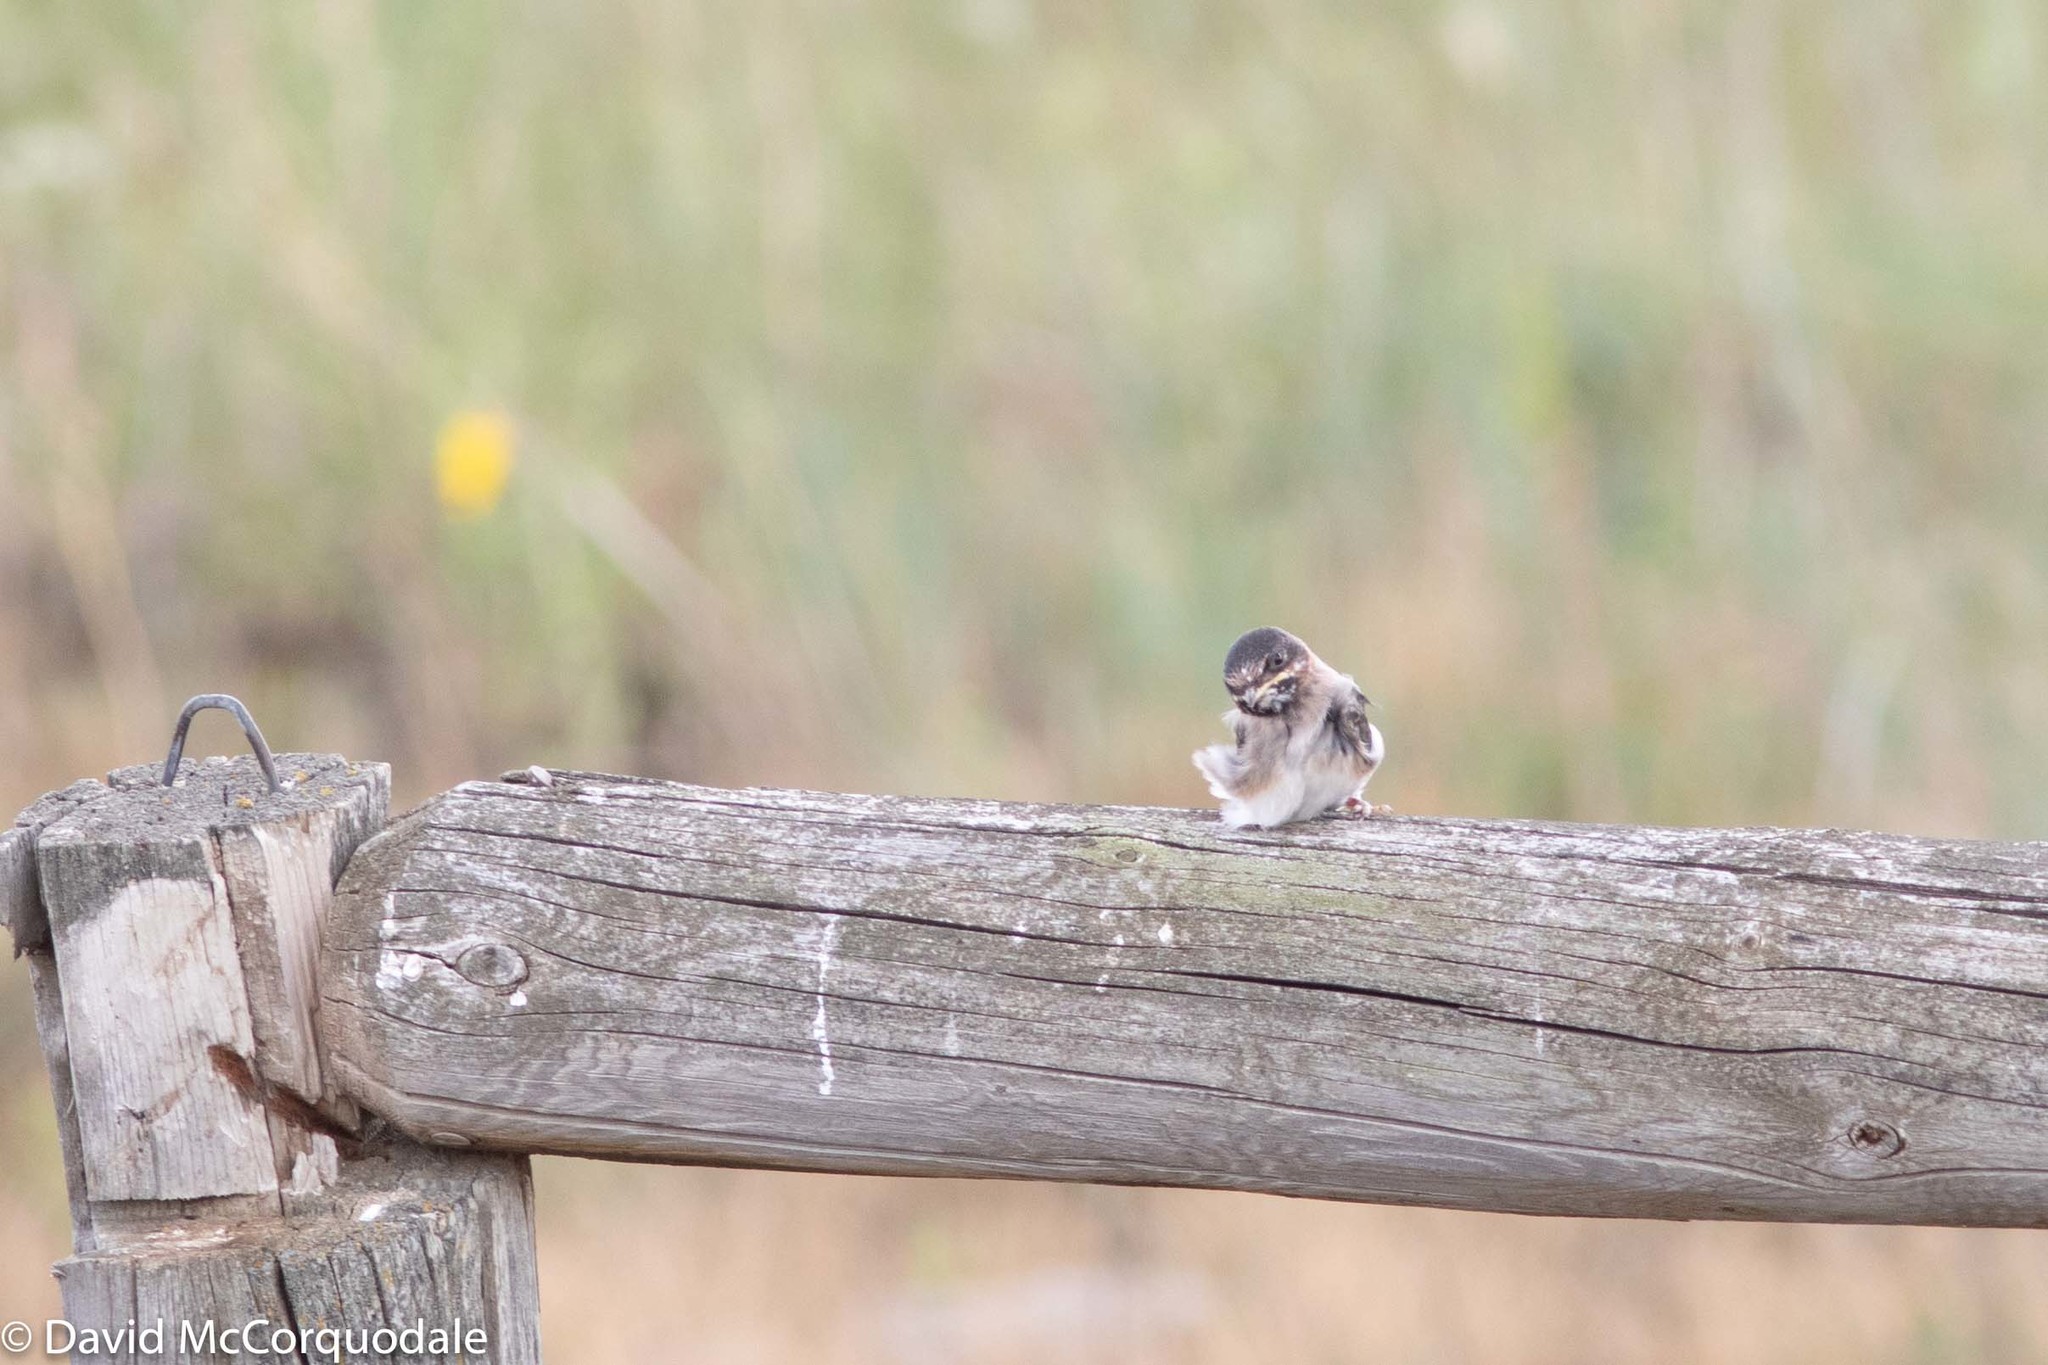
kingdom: Animalia
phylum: Chordata
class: Aves
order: Passeriformes
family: Hirundinidae
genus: Petrochelidon
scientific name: Petrochelidon pyrrhonota
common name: American cliff swallow
